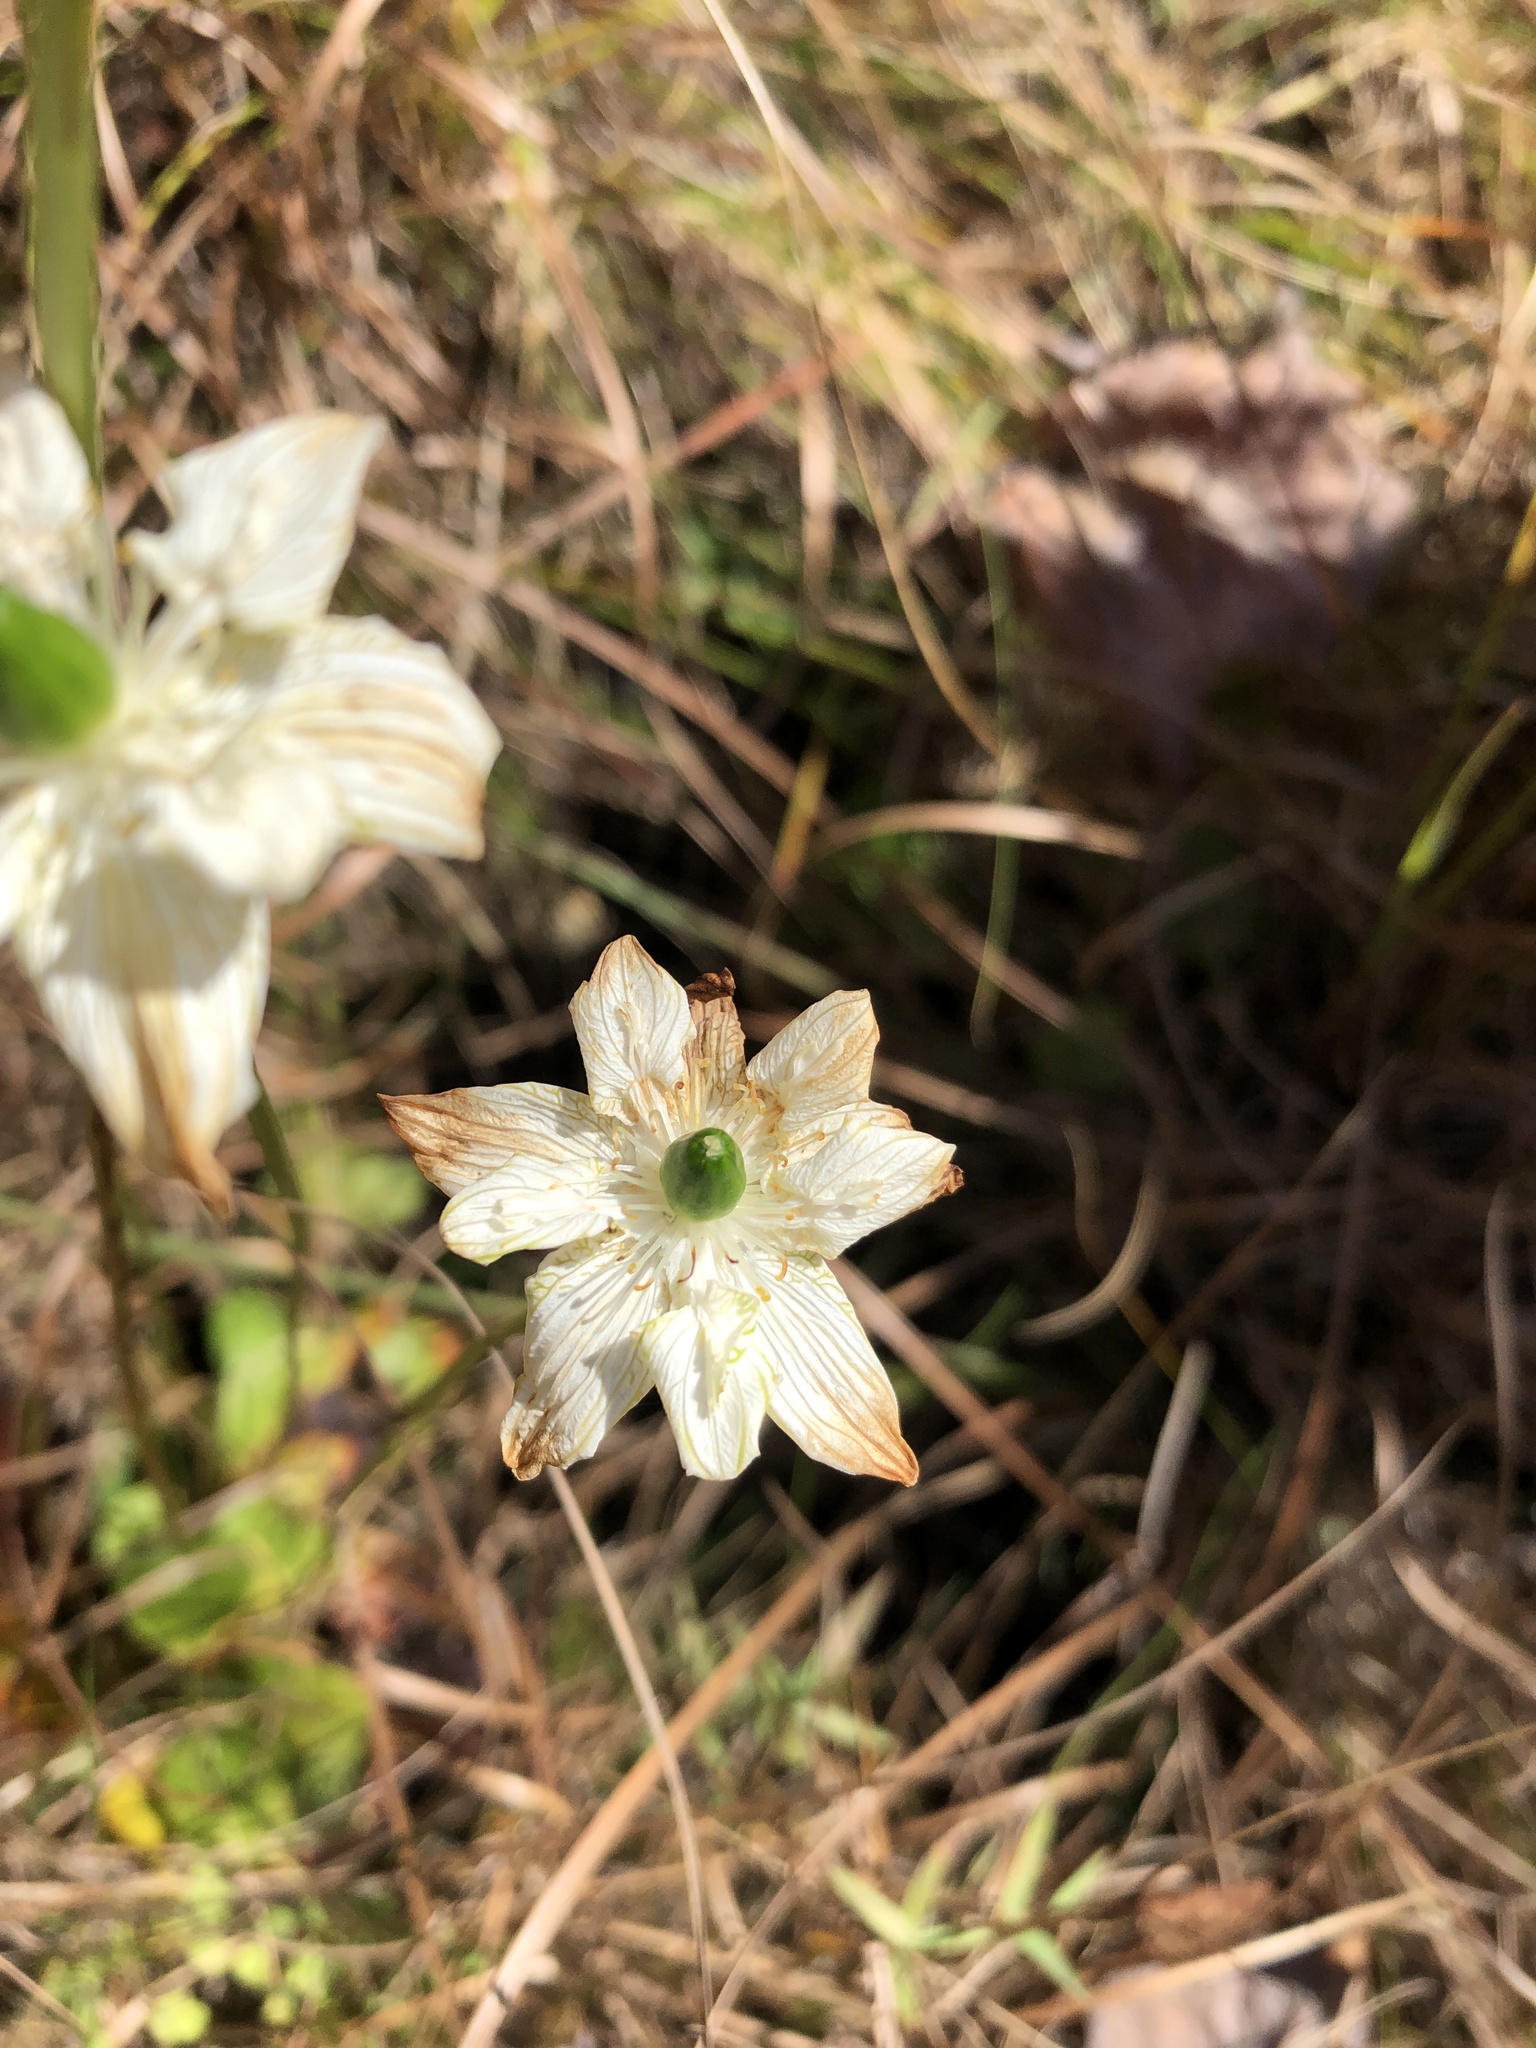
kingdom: Plantae
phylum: Tracheophyta
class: Magnoliopsida
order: Celastrales
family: Parnassiaceae
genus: Parnassia
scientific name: Parnassia grandifolia
